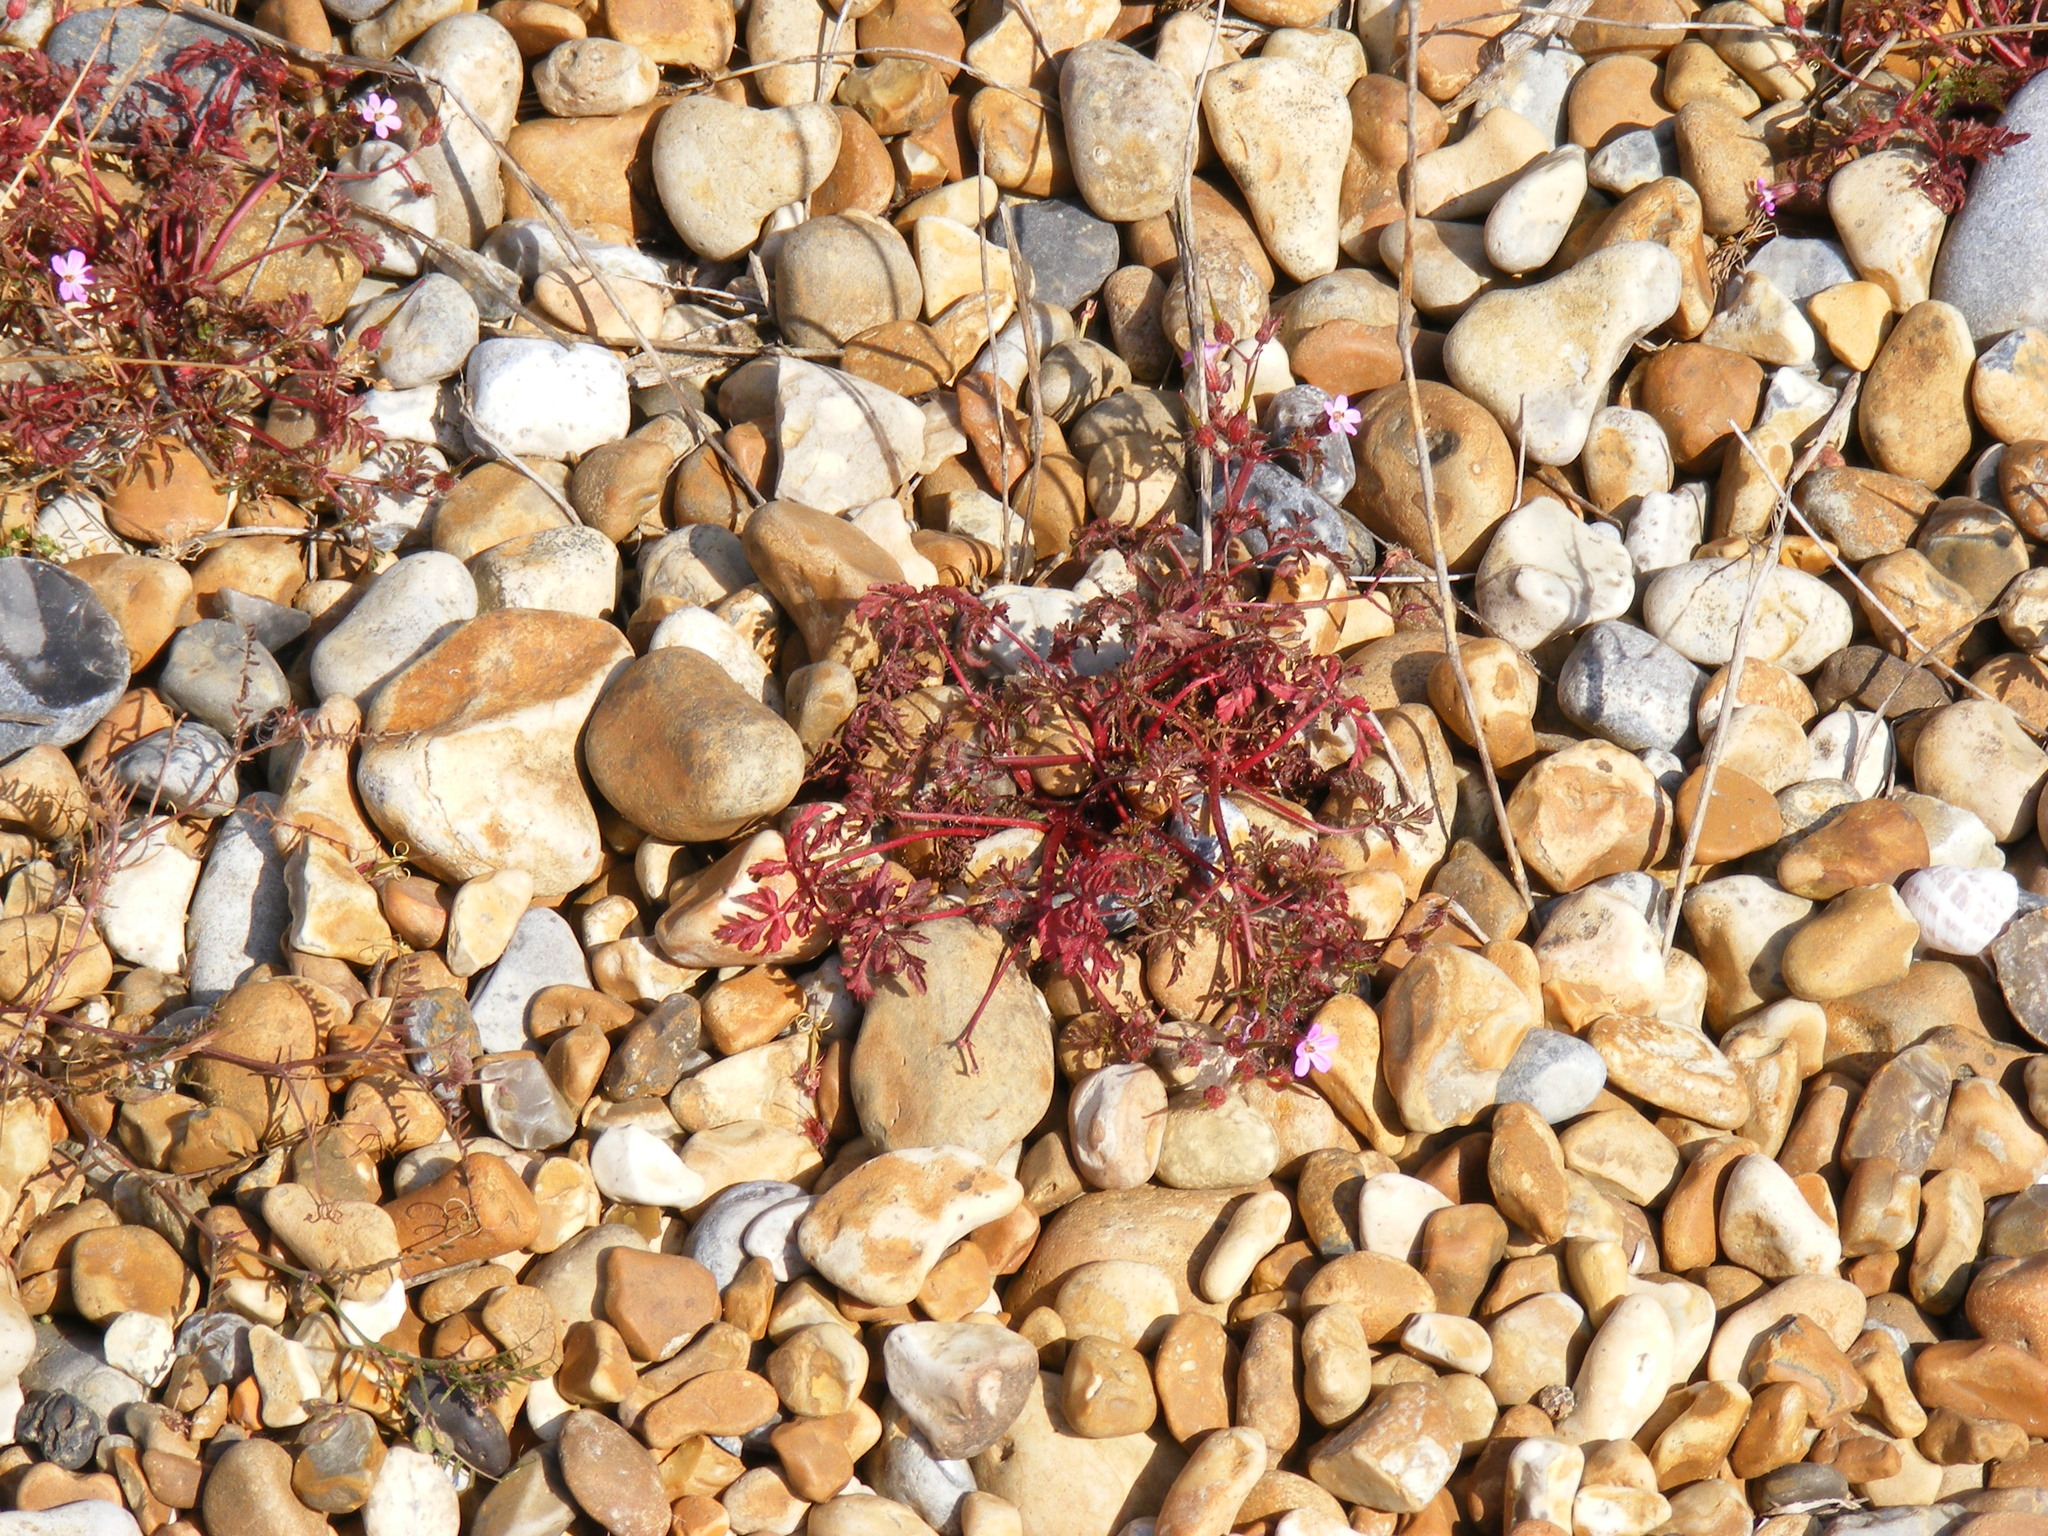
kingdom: Plantae
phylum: Tracheophyta
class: Magnoliopsida
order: Geraniales
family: Geraniaceae
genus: Geranium
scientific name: Geranium robertianum
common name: Herb-robert
